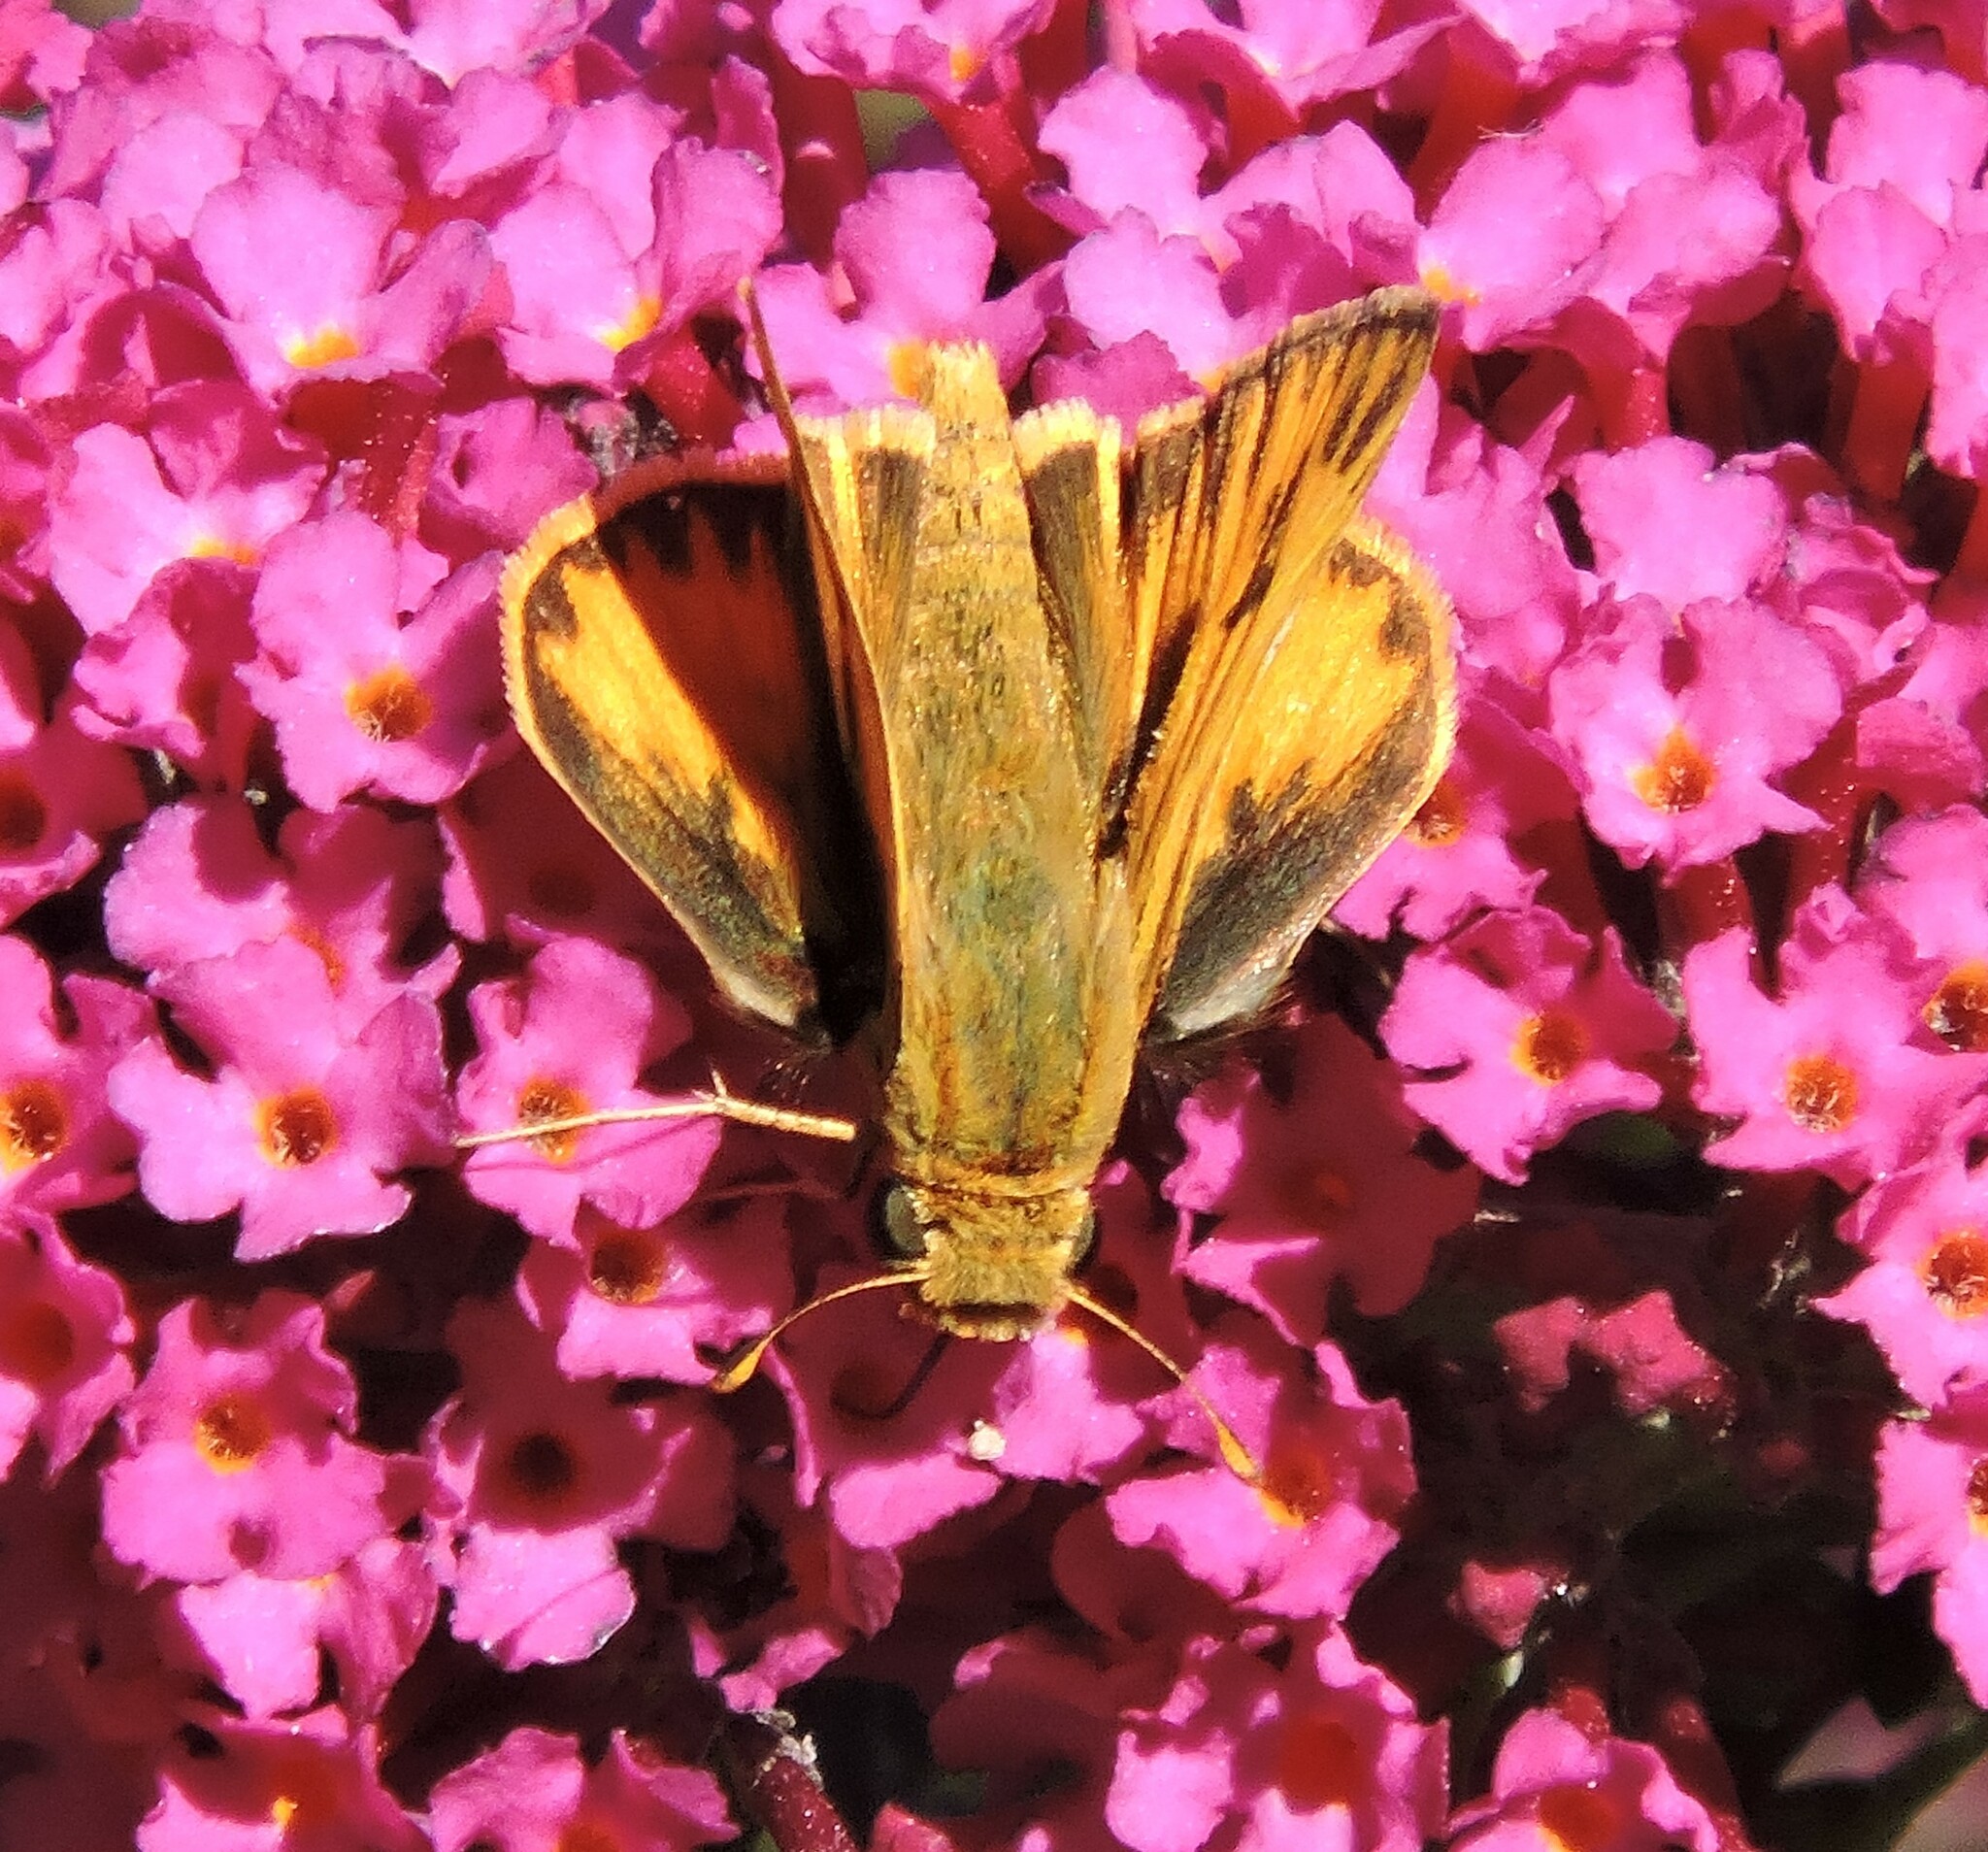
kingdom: Animalia
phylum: Arthropoda
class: Insecta
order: Lepidoptera
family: Hesperiidae
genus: Hylephila
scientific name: Hylephila phyleus
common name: Fiery skipper
